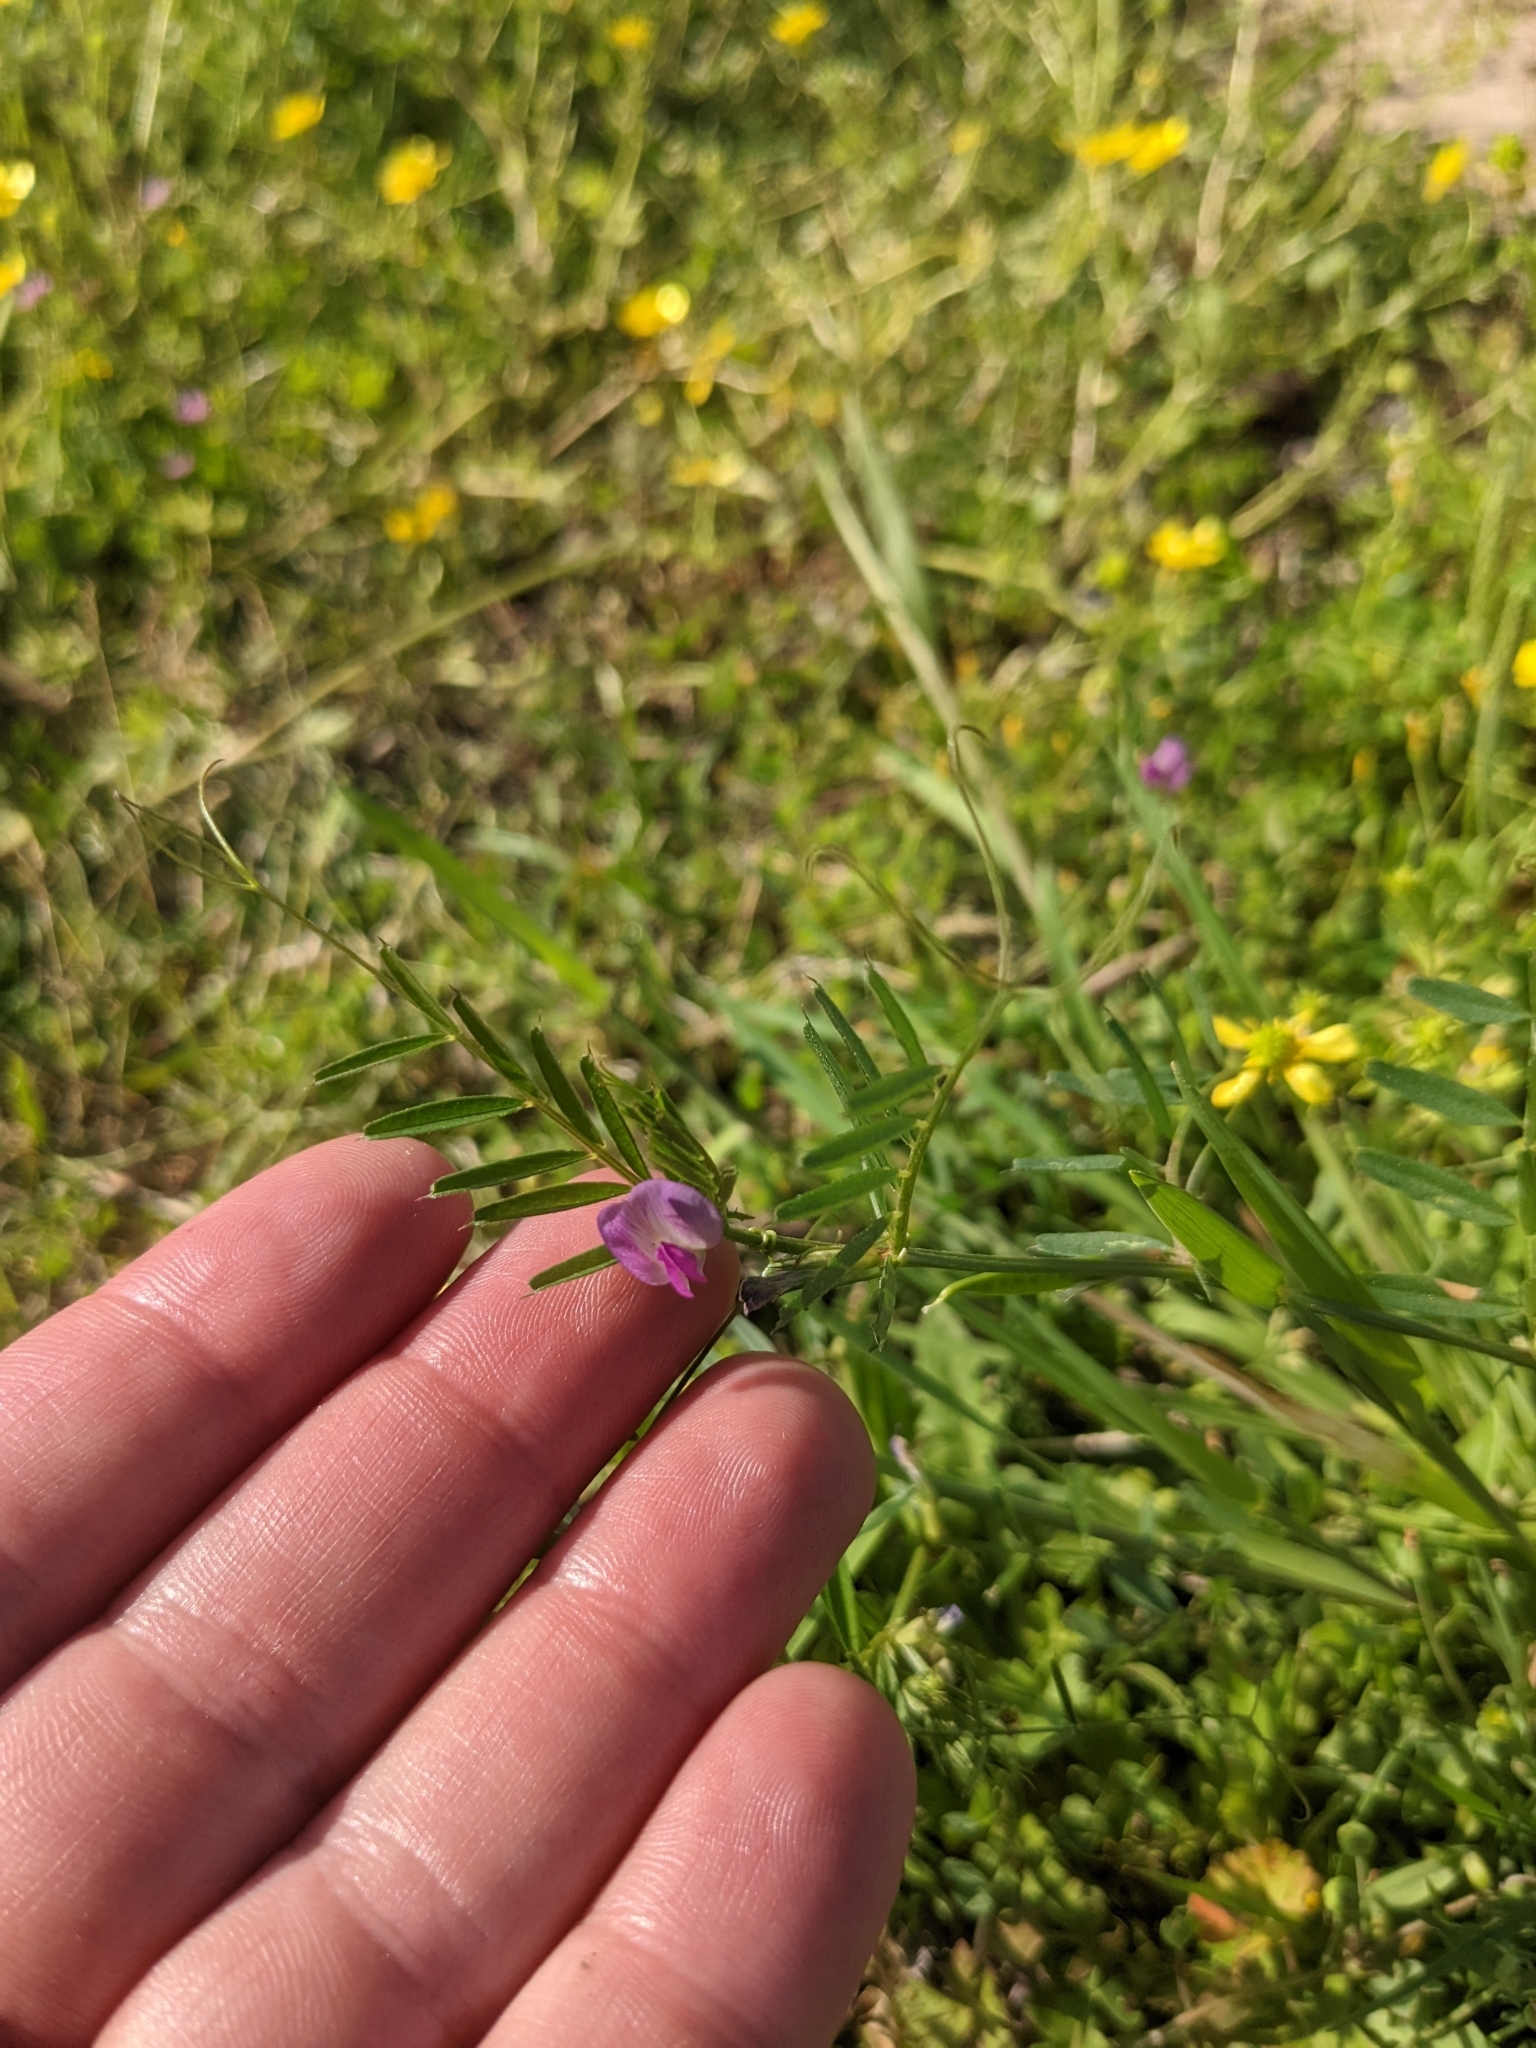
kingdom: Plantae
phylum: Tracheophyta
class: Magnoliopsida
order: Fabales
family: Fabaceae
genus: Vicia
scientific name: Vicia sativa
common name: Garden vetch
